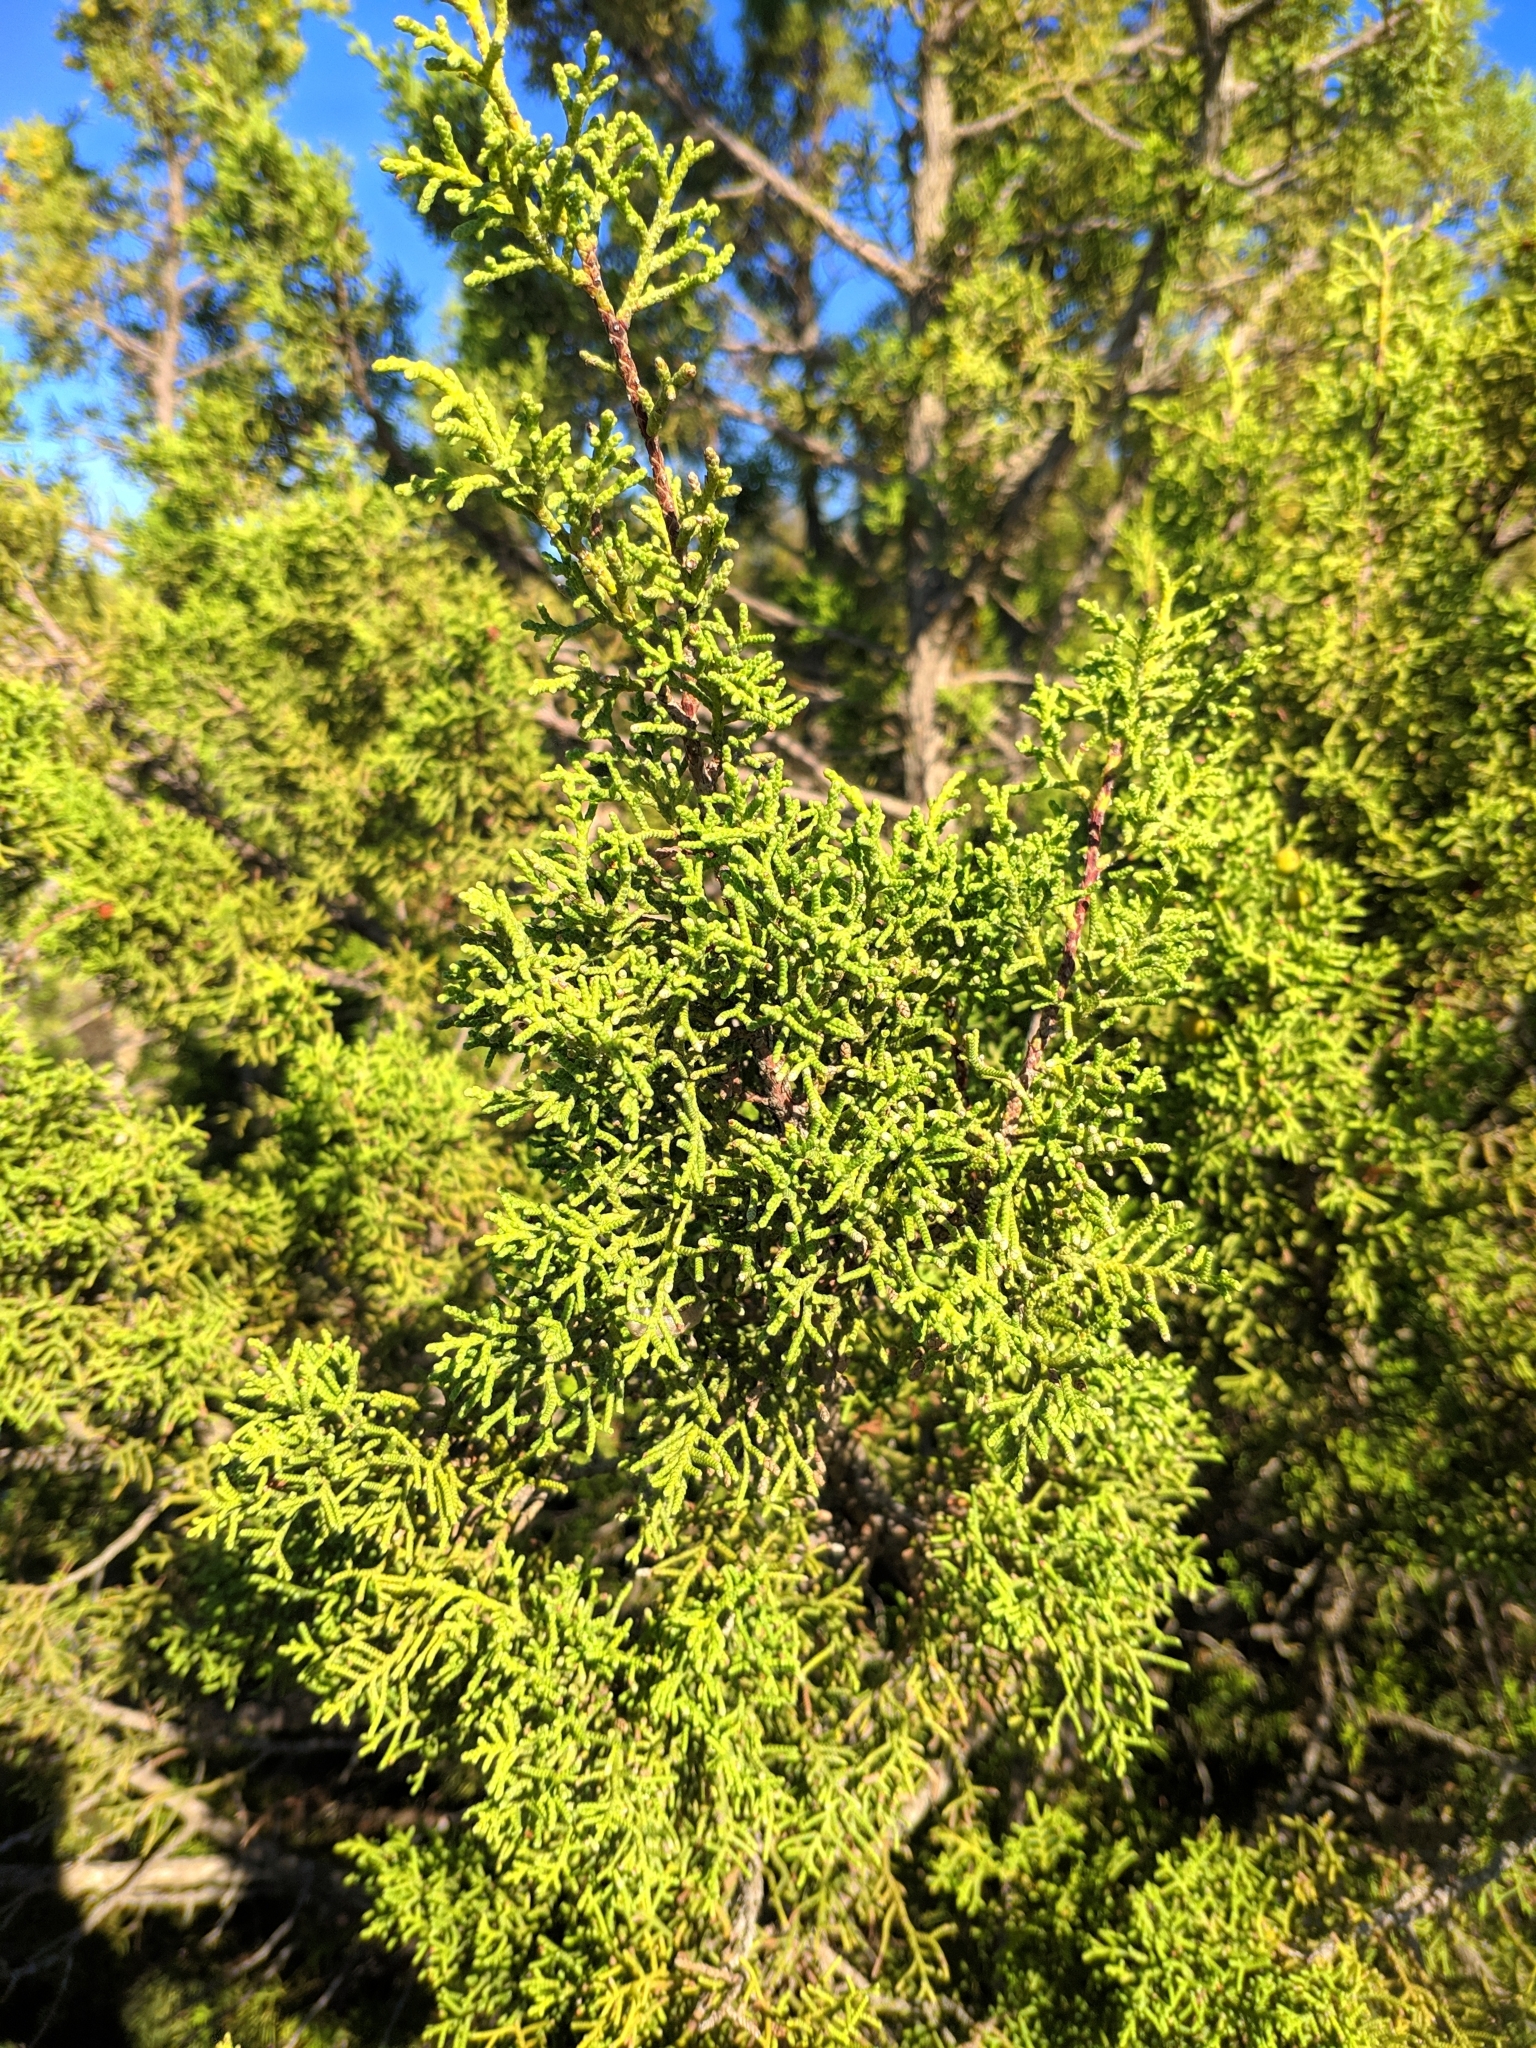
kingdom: Plantae
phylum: Tracheophyta
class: Pinopsida
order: Pinales
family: Cupressaceae
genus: Juniperus
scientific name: Juniperus phoenicea
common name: Phoenician juniper
